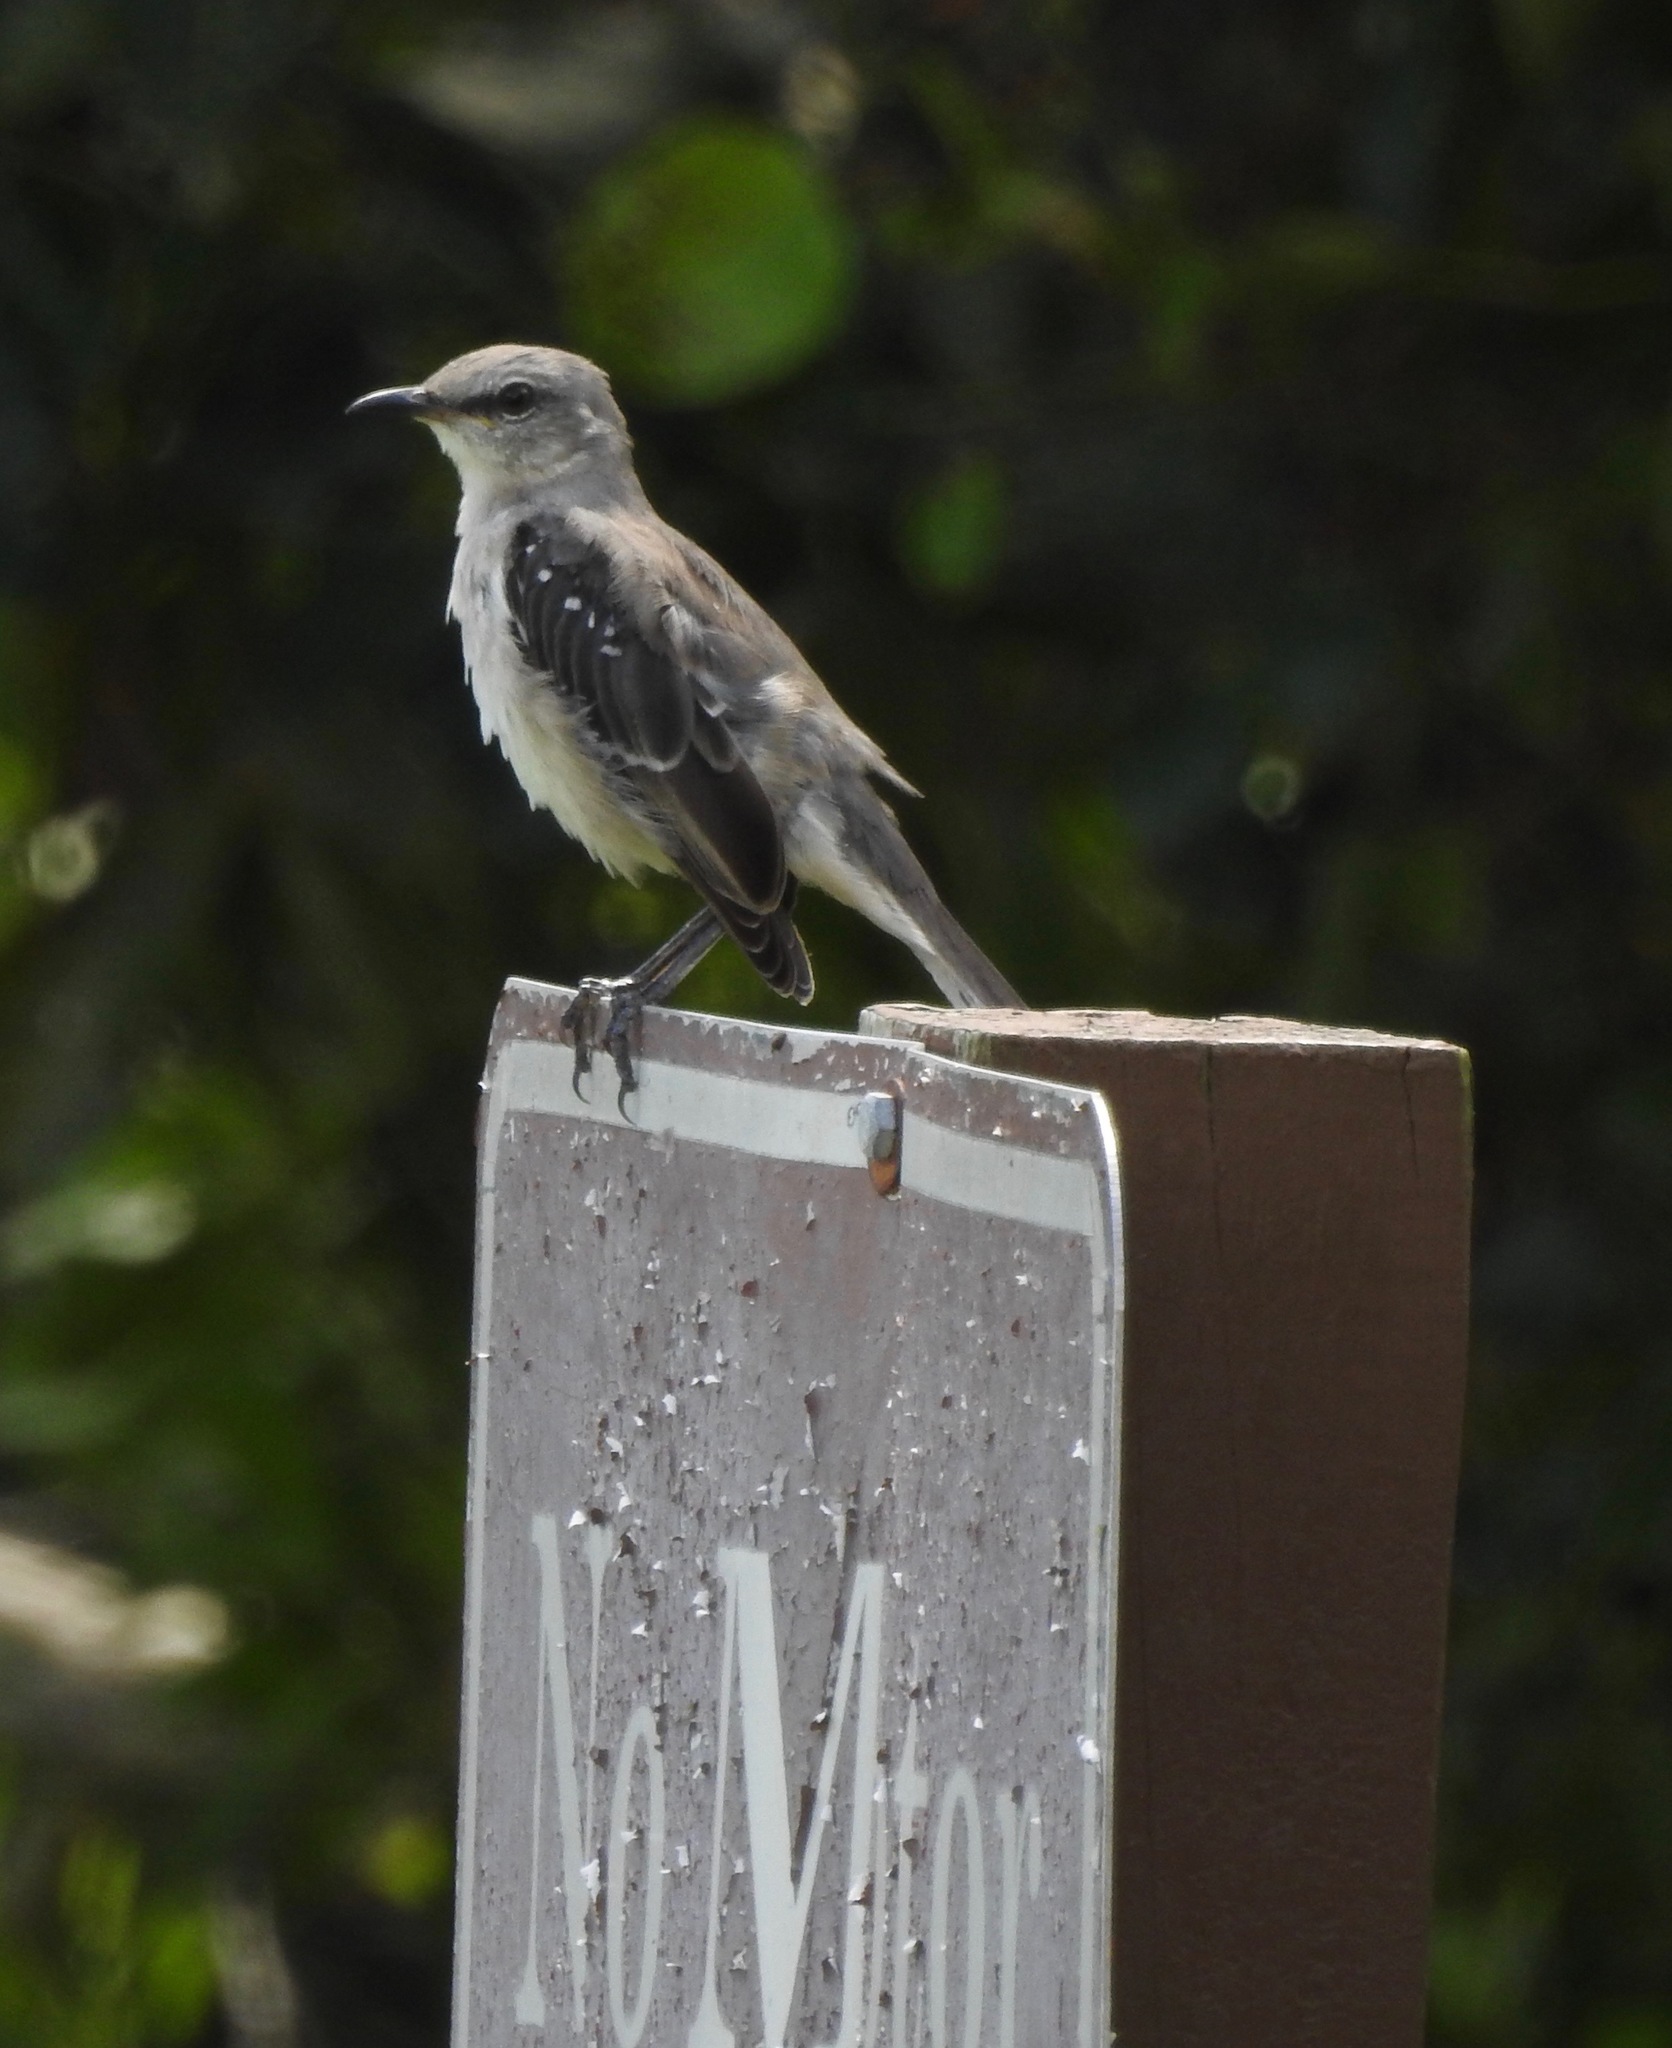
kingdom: Animalia
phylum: Chordata
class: Aves
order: Passeriformes
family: Mimidae
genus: Mimus
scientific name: Mimus polyglottos
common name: Northern mockingbird
